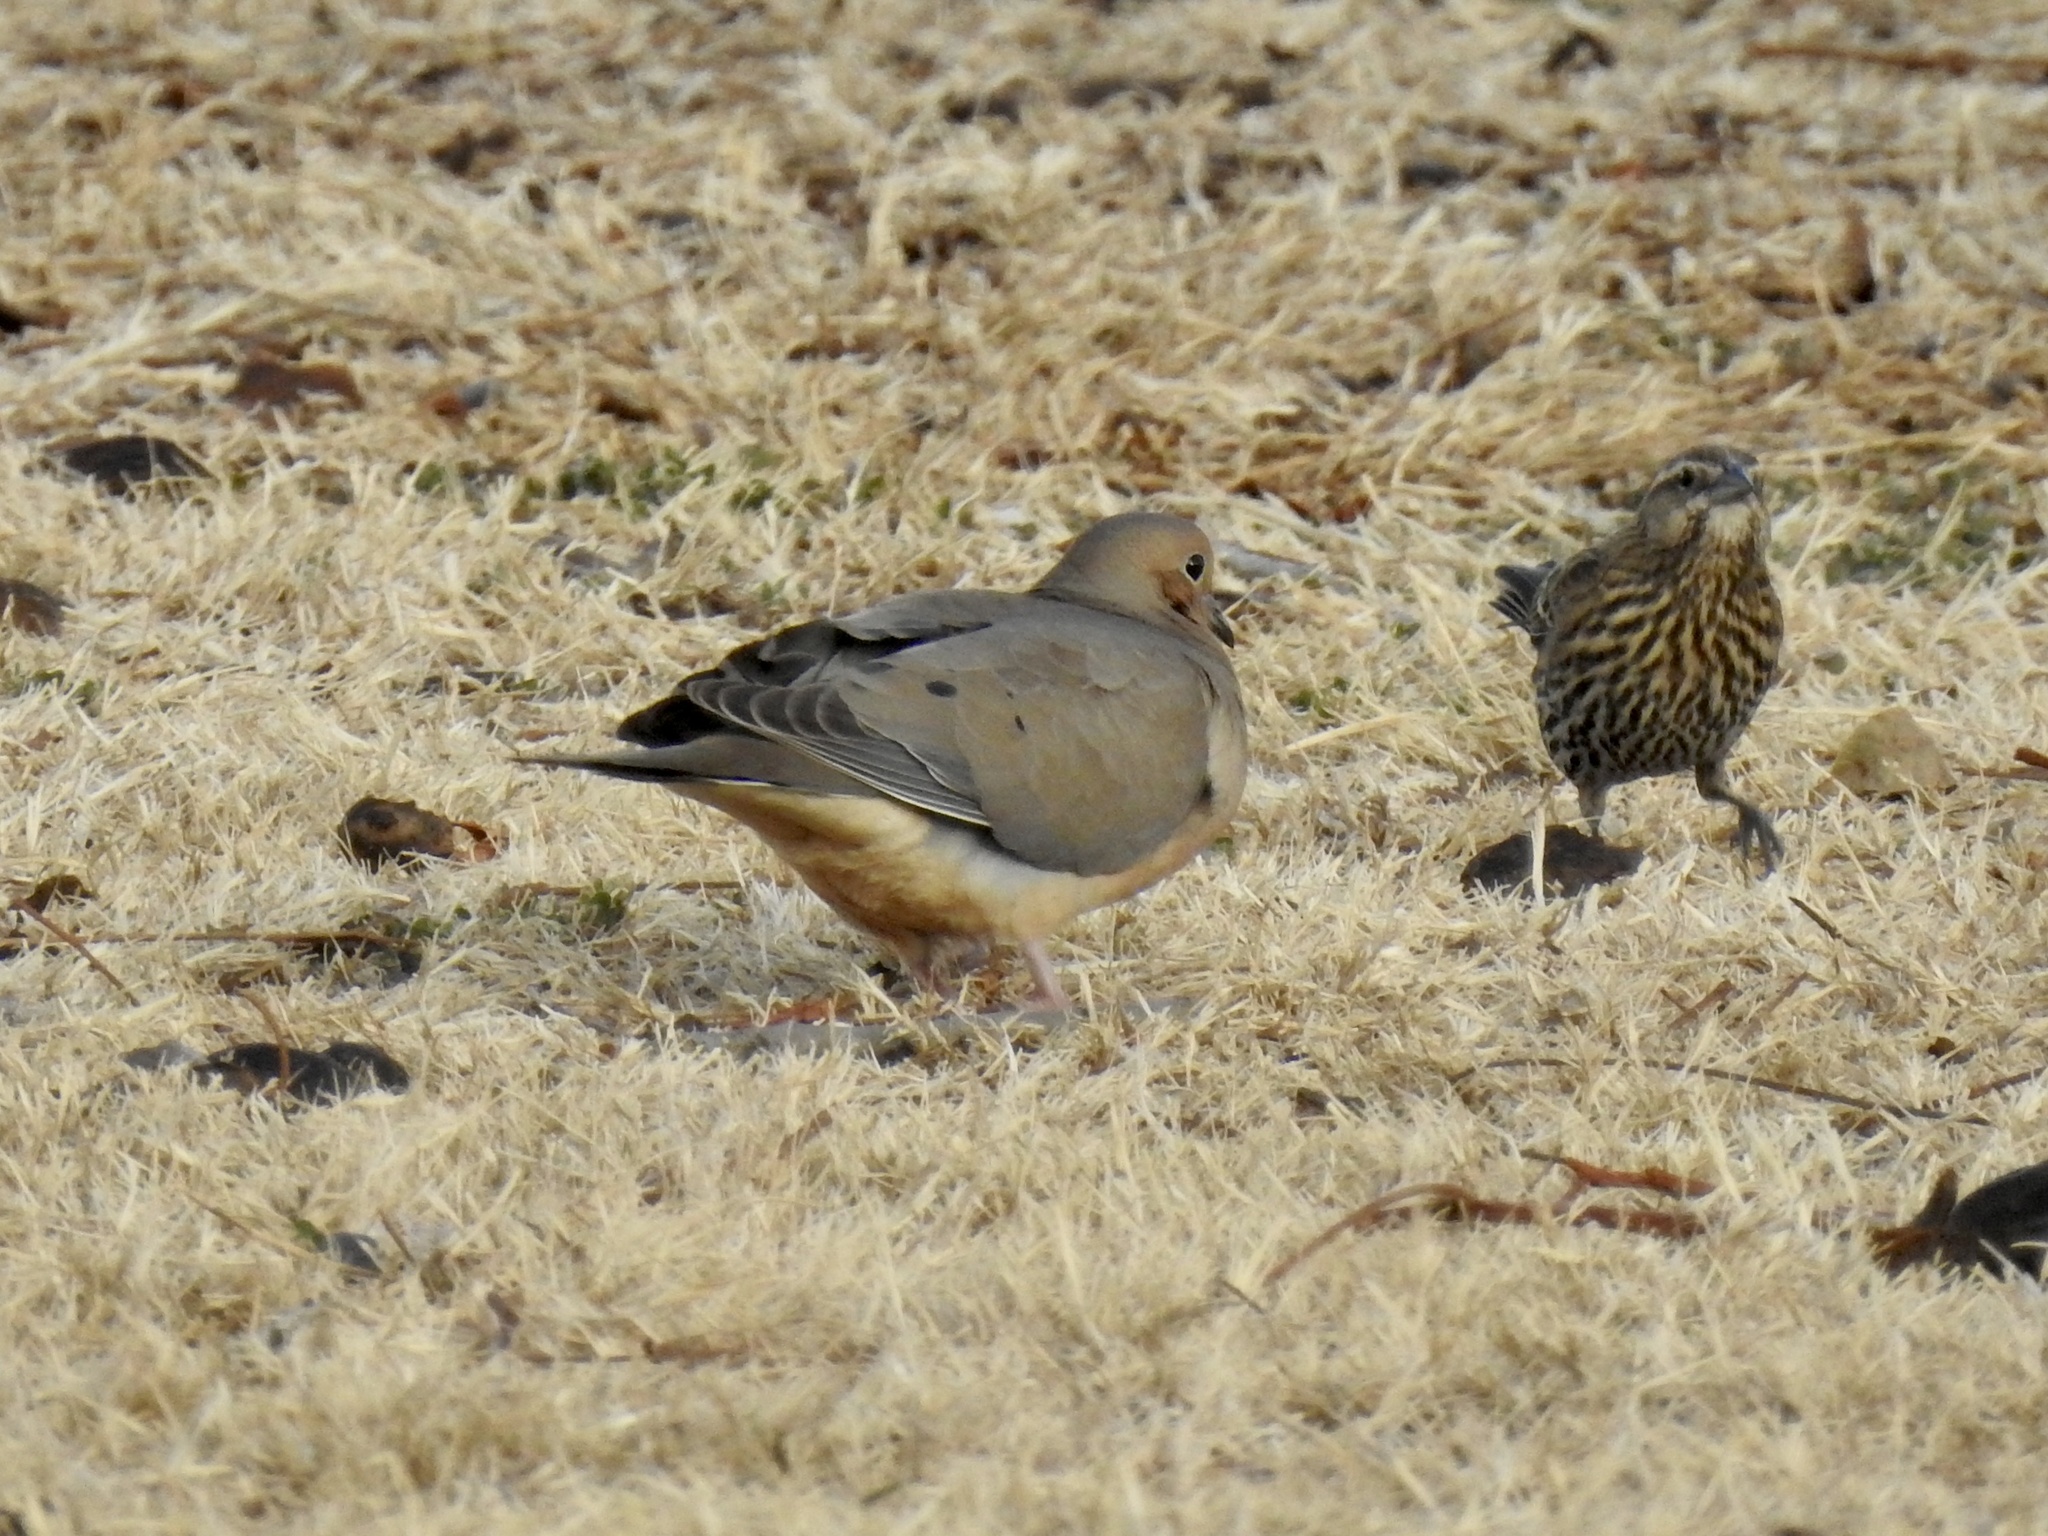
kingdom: Animalia
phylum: Chordata
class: Aves
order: Columbiformes
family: Columbidae
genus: Zenaida
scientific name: Zenaida macroura
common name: Mourning dove
